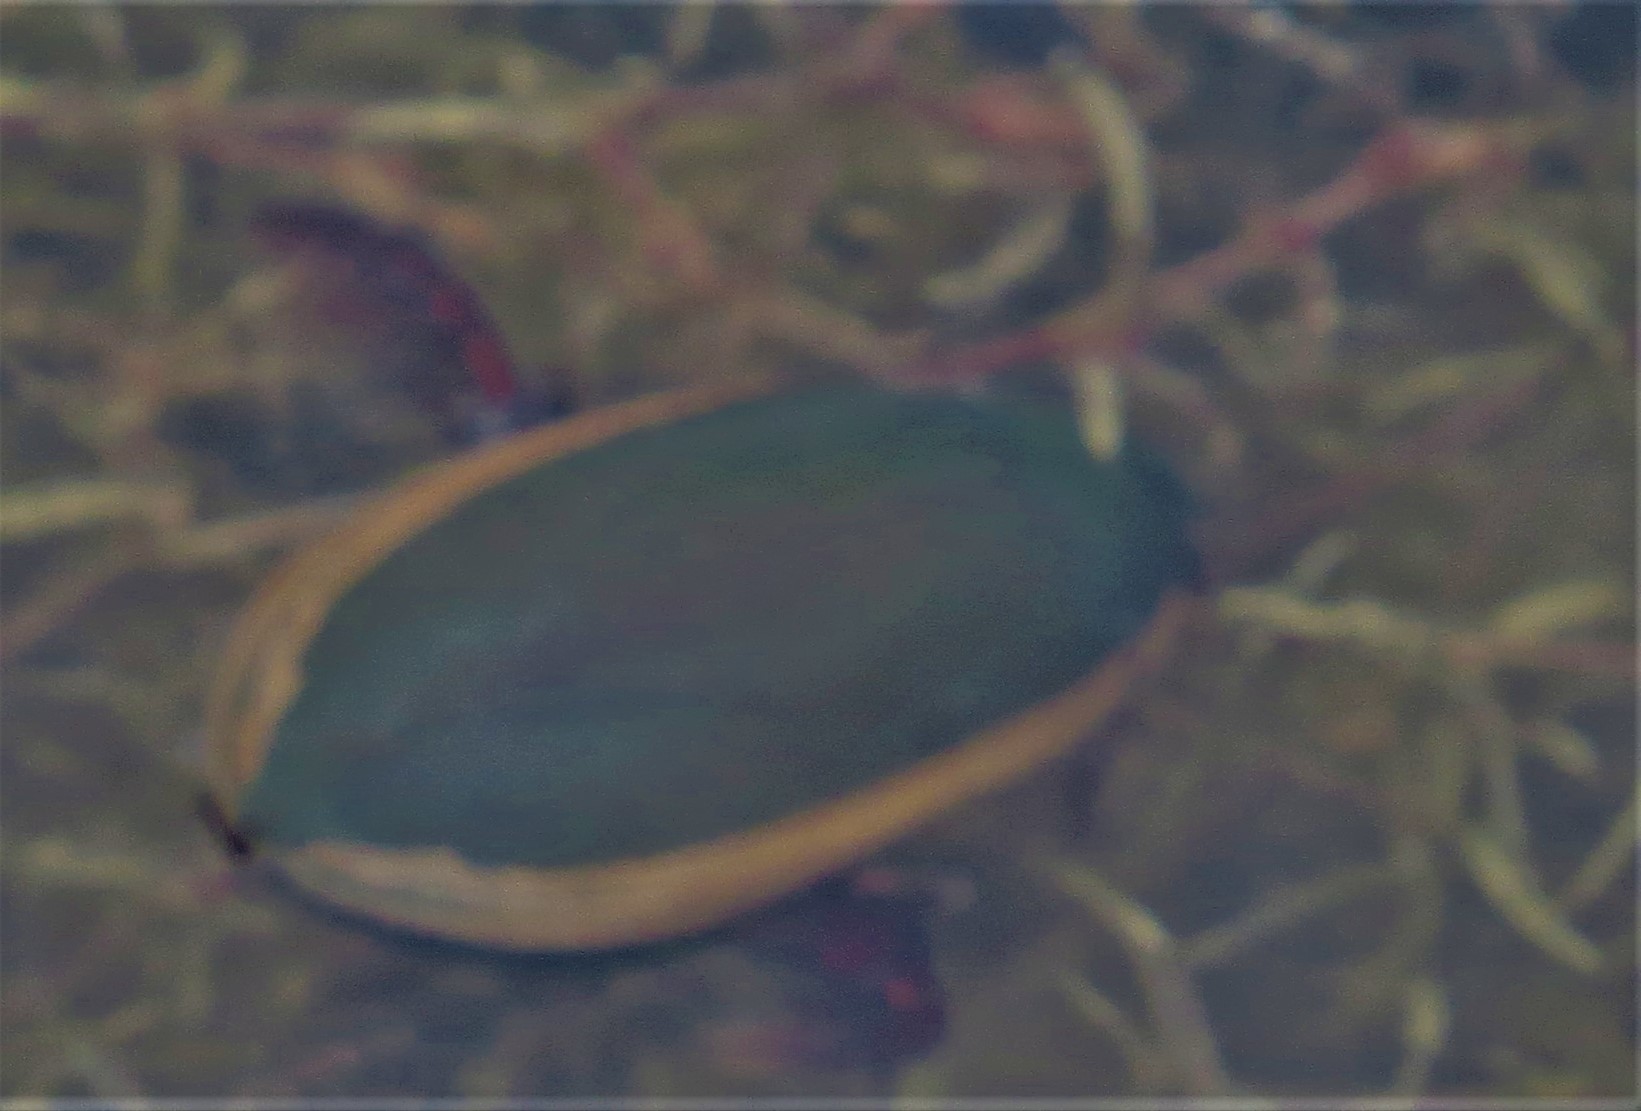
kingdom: Animalia
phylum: Arthropoda
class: Insecta
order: Coleoptera
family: Dytiscidae
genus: Cybister
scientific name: Cybister fimbriolatus
